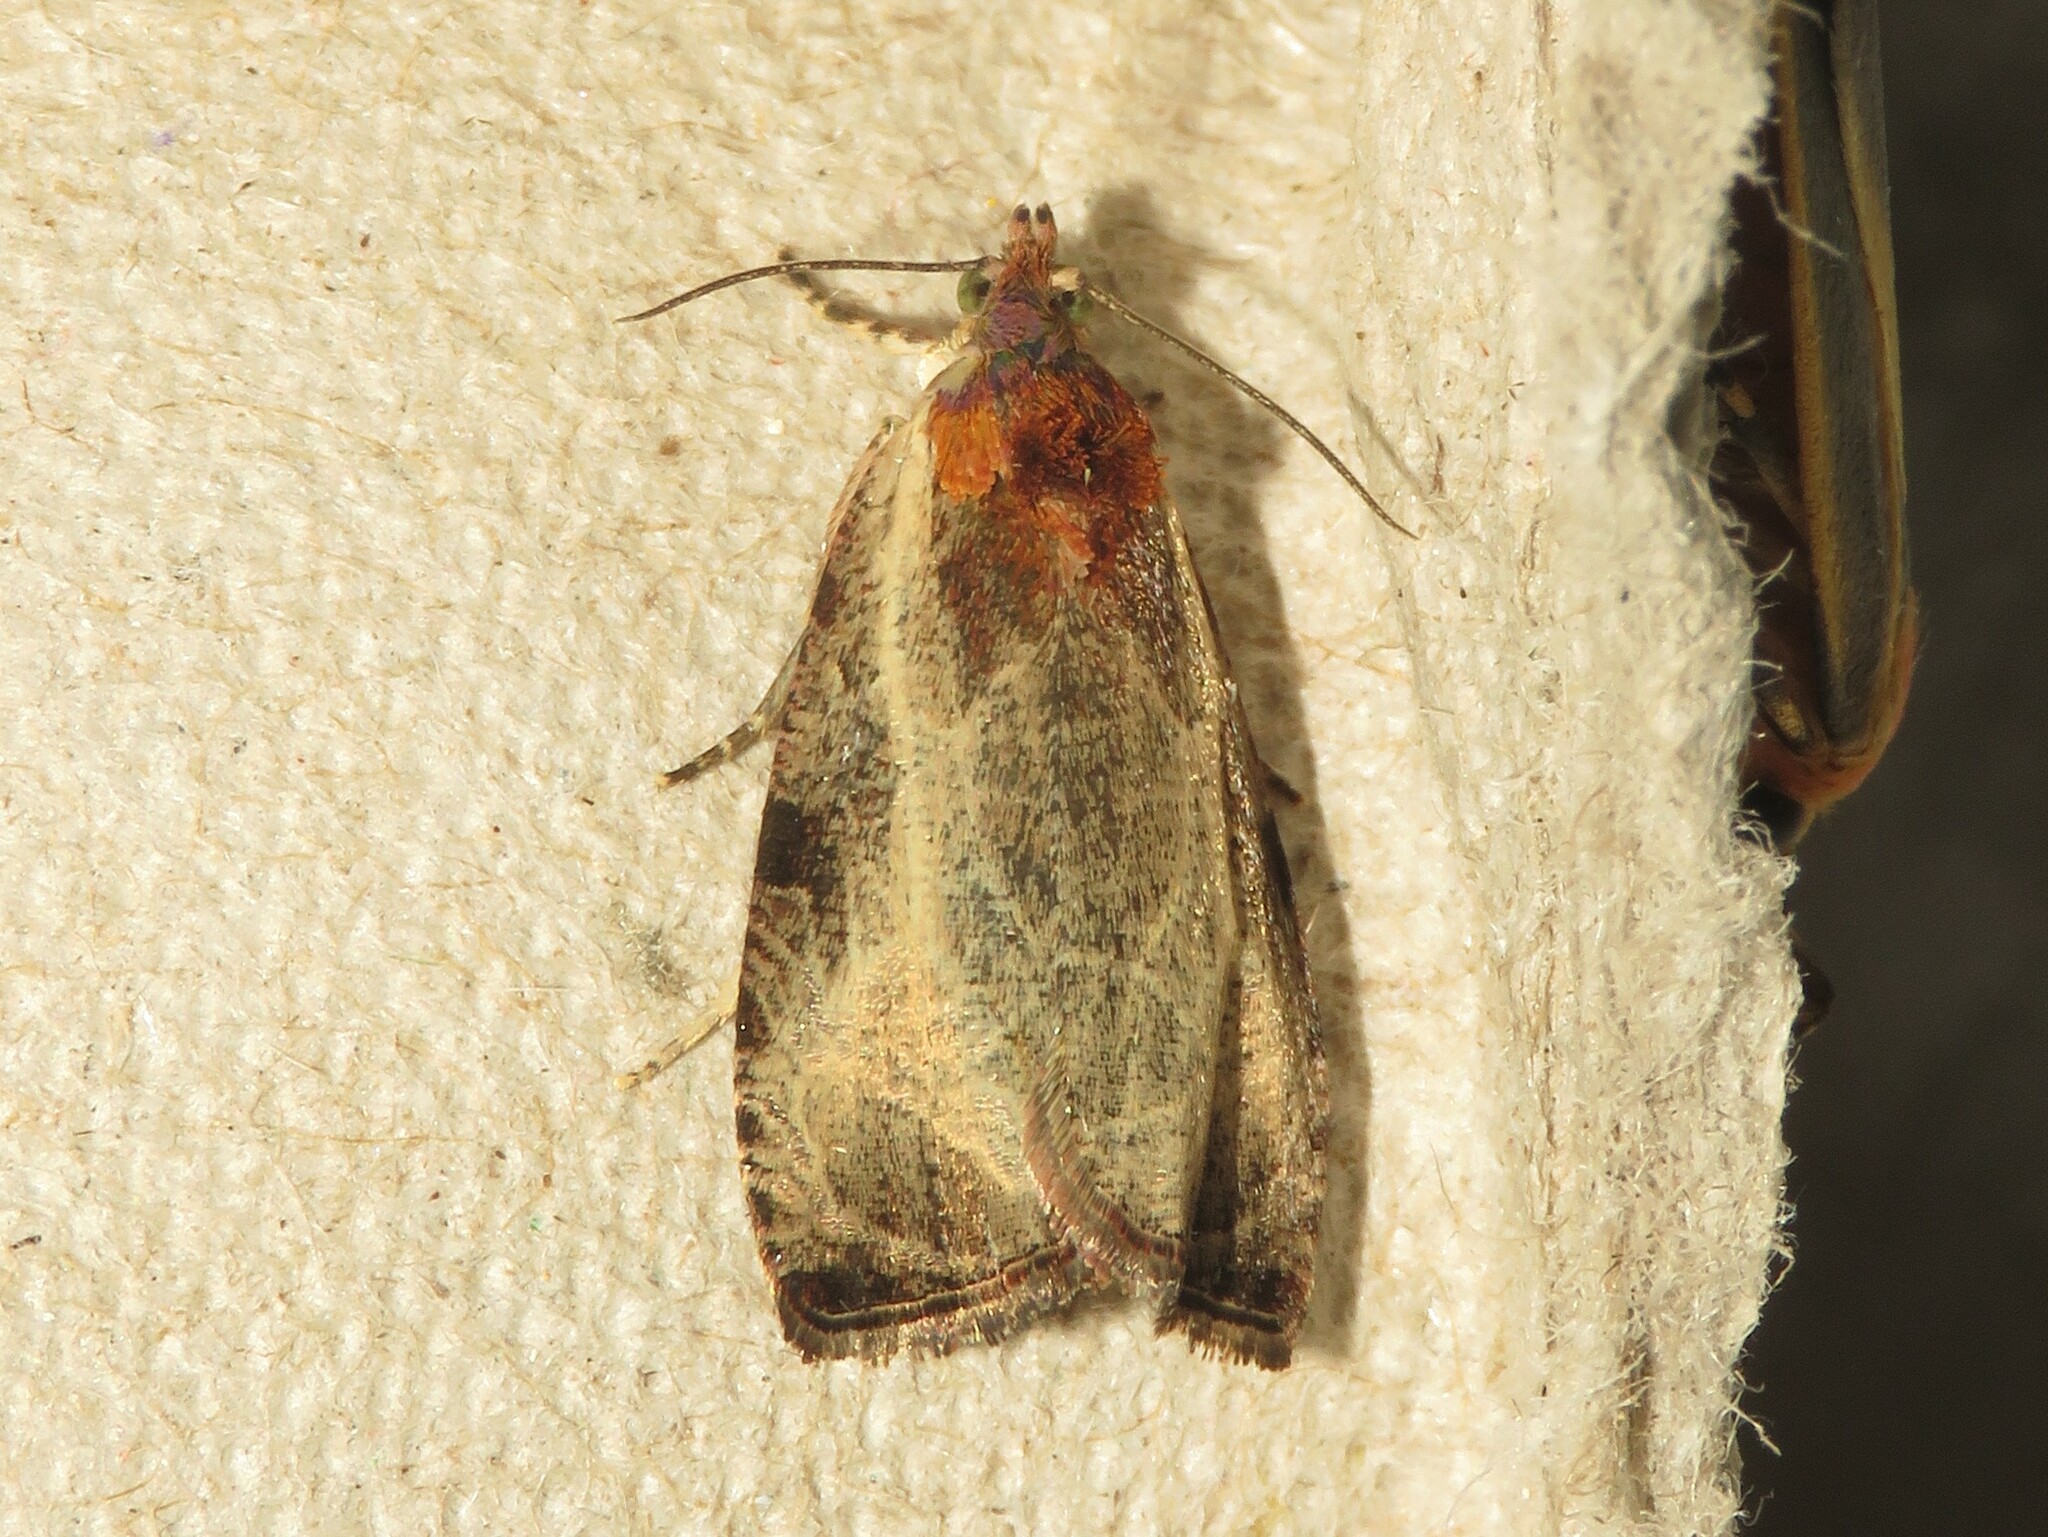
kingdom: Animalia
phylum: Arthropoda
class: Insecta
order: Lepidoptera
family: Tortricidae
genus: Olethreutes
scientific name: Olethreutes inornatana
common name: Inornate olethreutes moth
